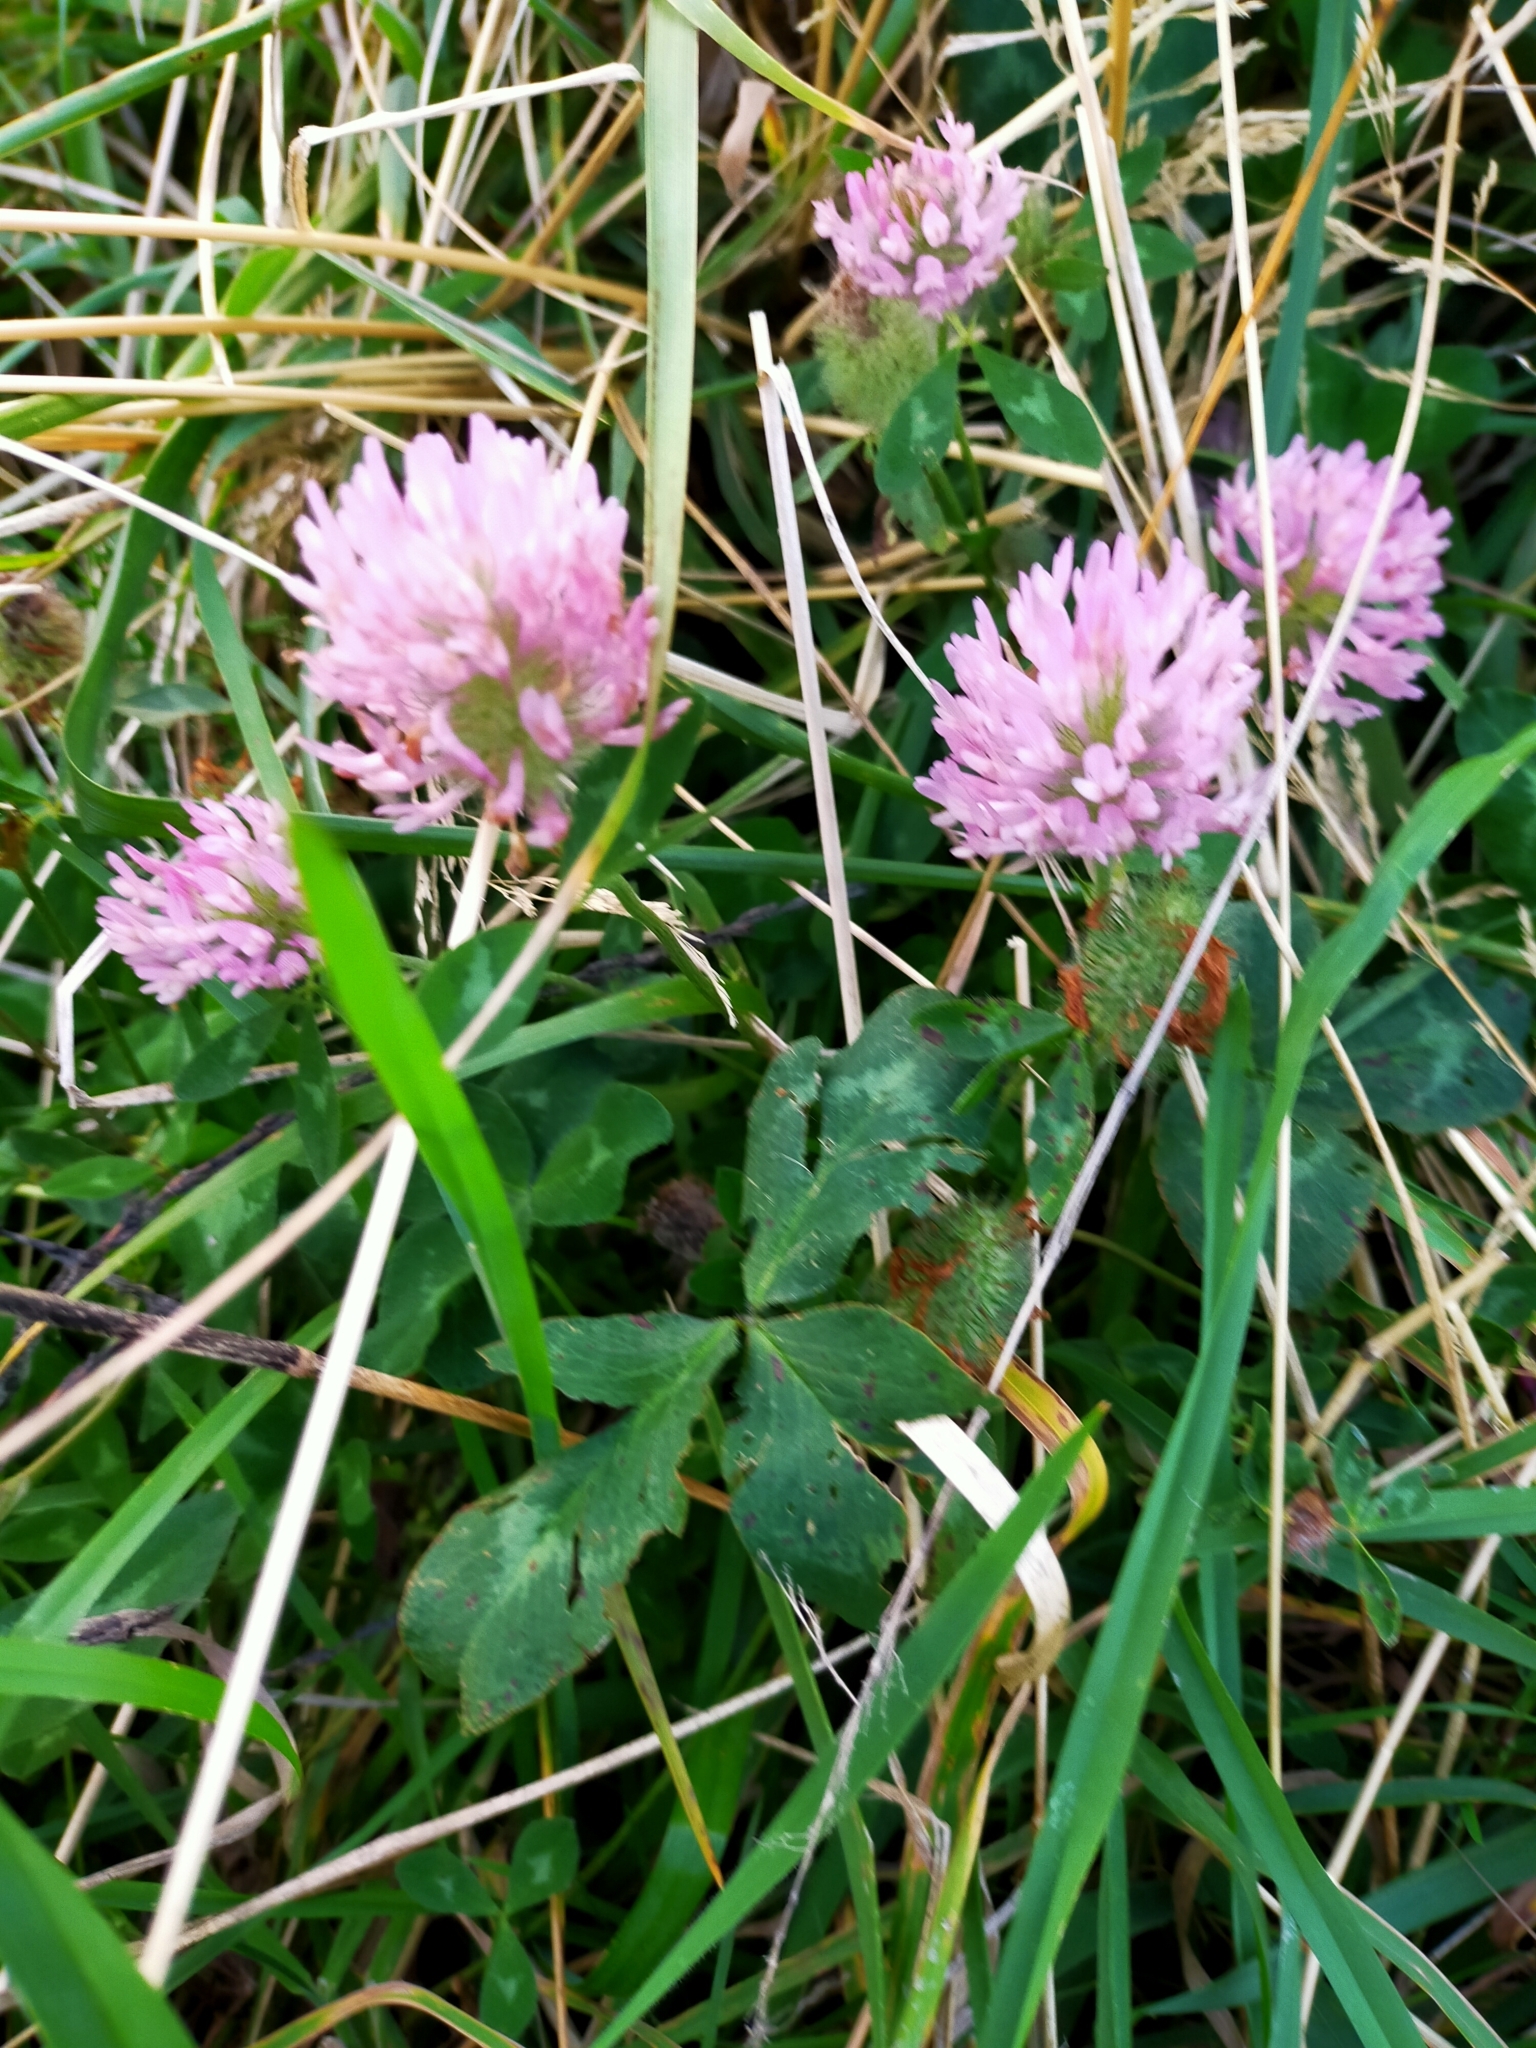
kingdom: Plantae
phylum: Tracheophyta
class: Magnoliopsida
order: Fabales
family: Fabaceae
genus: Trifolium
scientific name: Trifolium pratense
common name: Red clover
